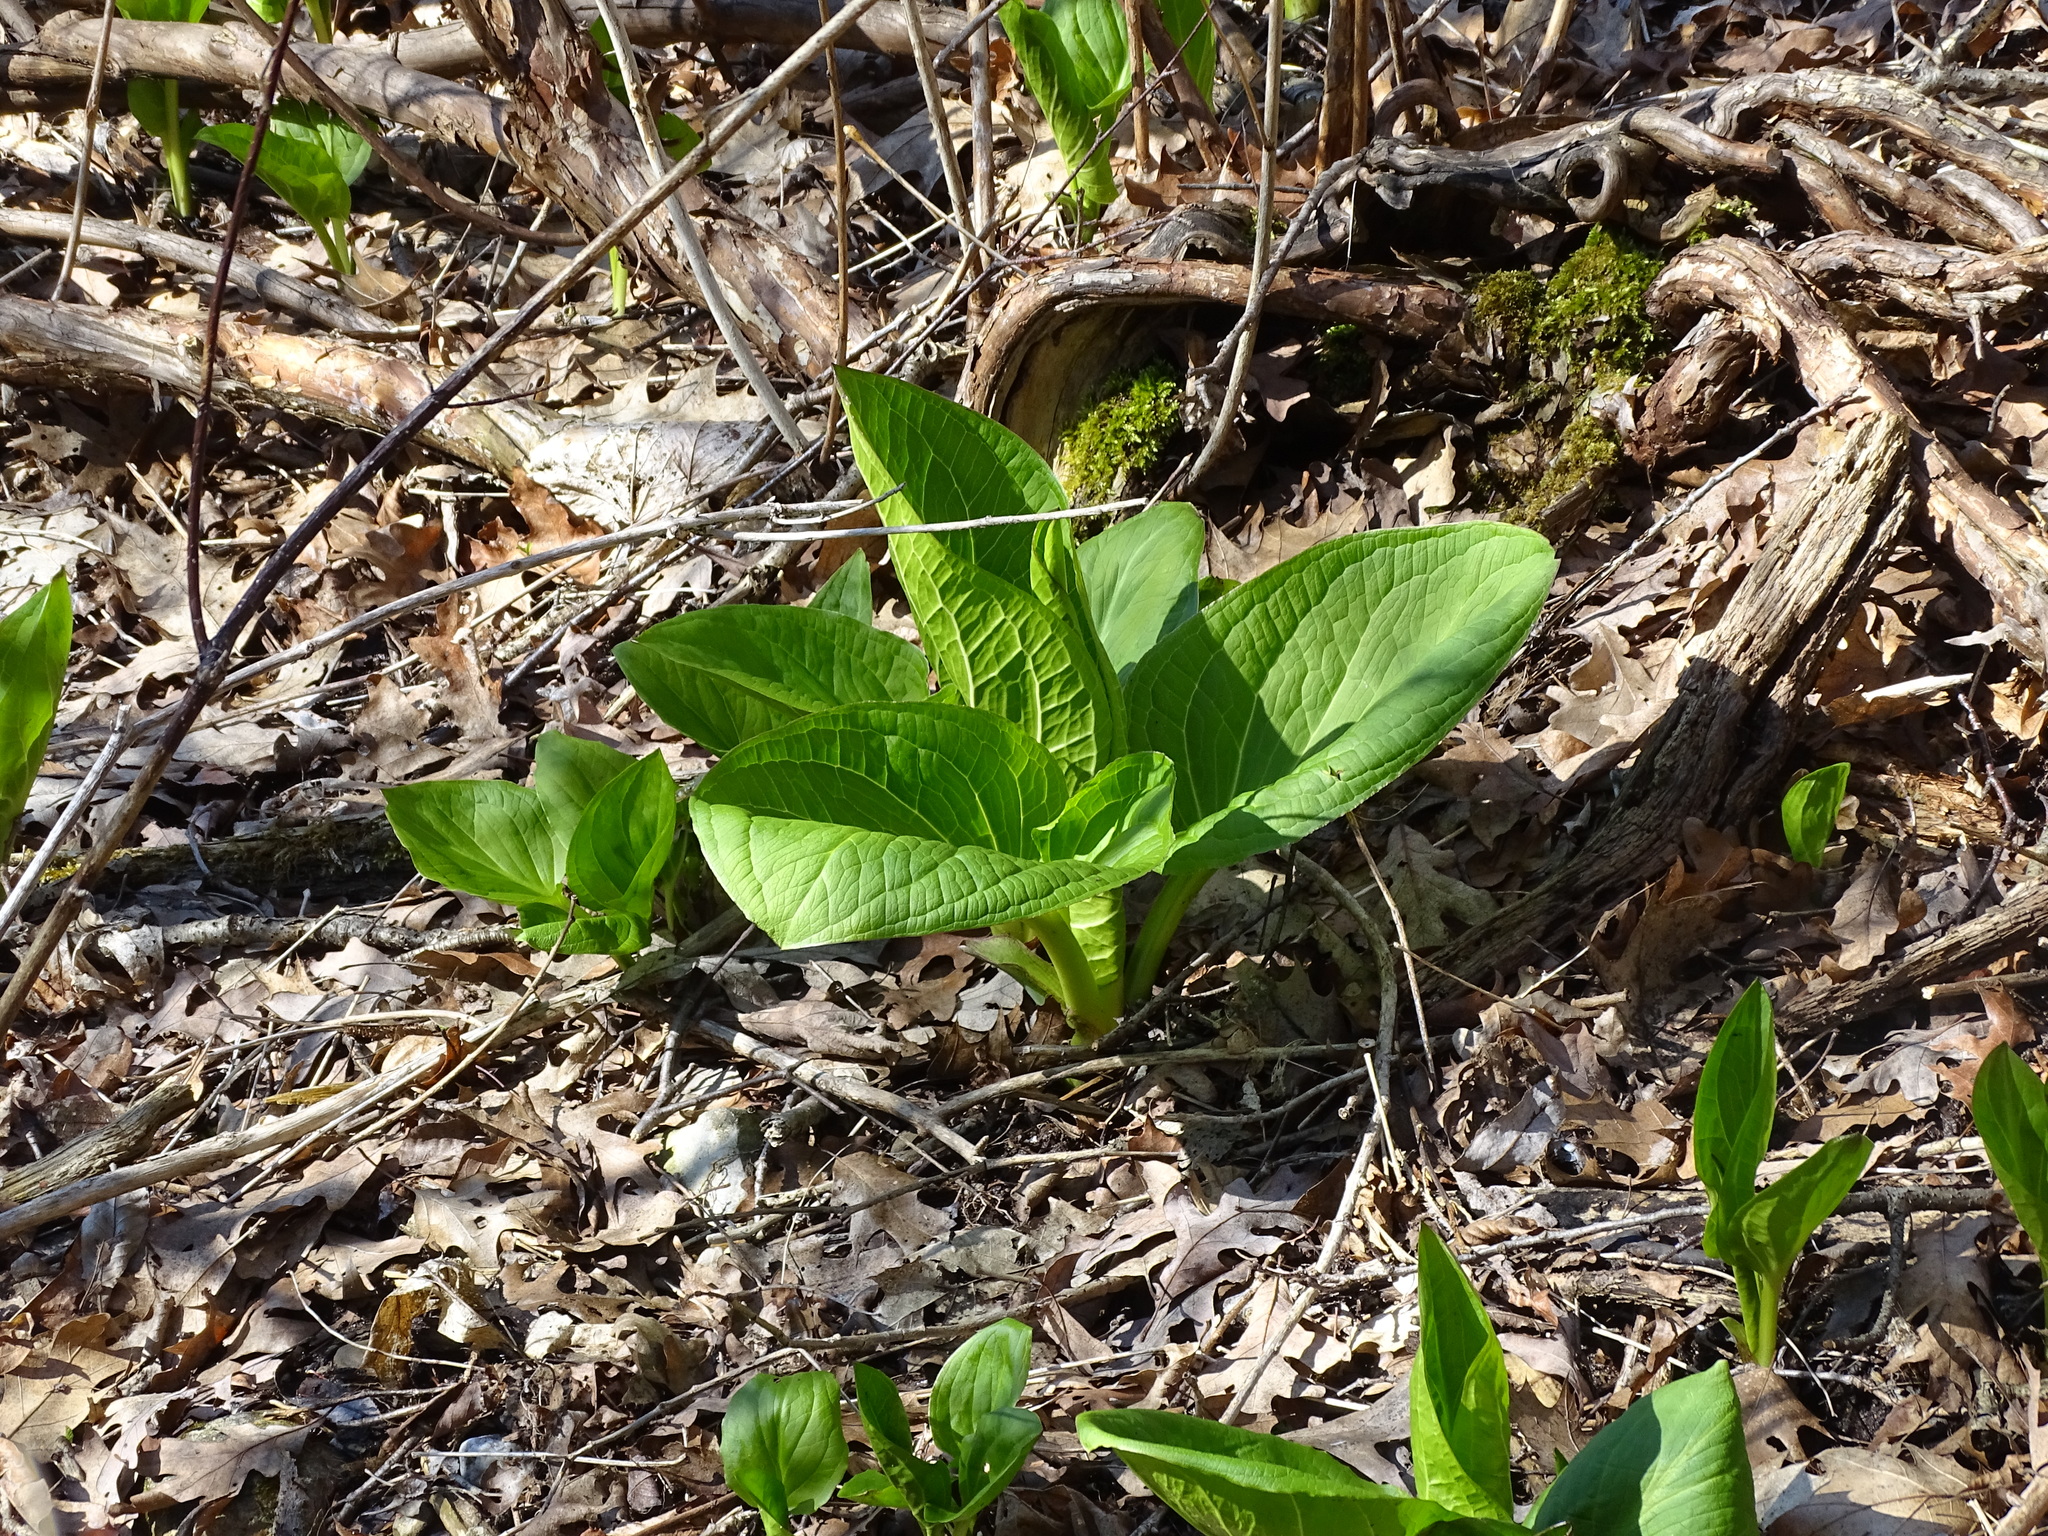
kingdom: Plantae
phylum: Tracheophyta
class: Liliopsida
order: Alismatales
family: Araceae
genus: Symplocarpus
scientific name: Symplocarpus foetidus
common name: Eastern skunk cabbage
